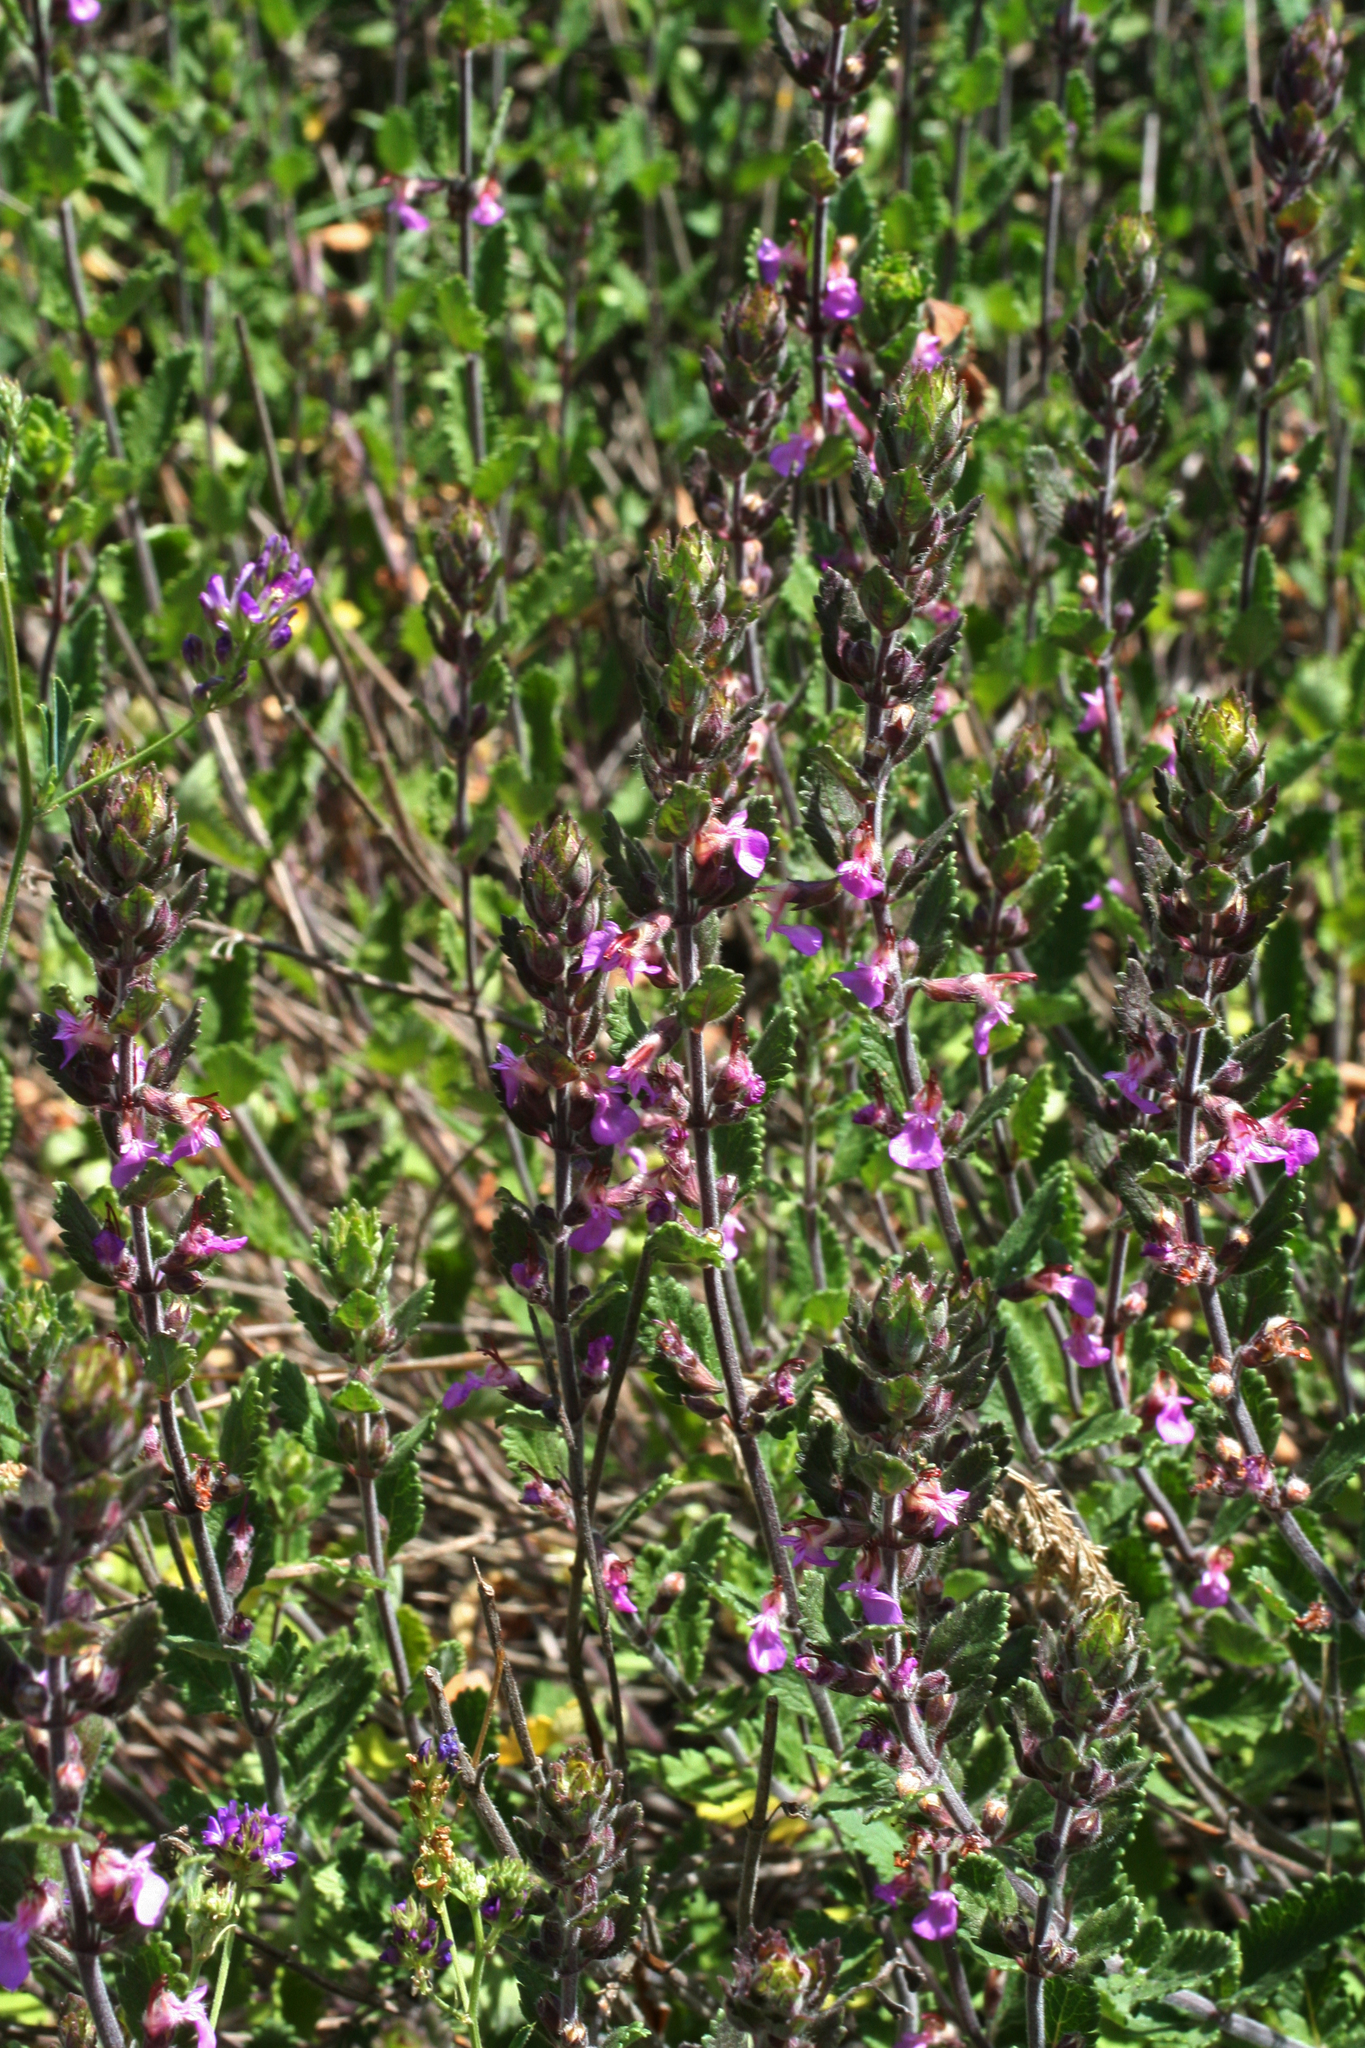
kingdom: Plantae
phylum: Tracheophyta
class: Magnoliopsida
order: Lamiales
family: Lamiaceae
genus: Teucrium
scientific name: Teucrium chamaedrys
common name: Wall germander
